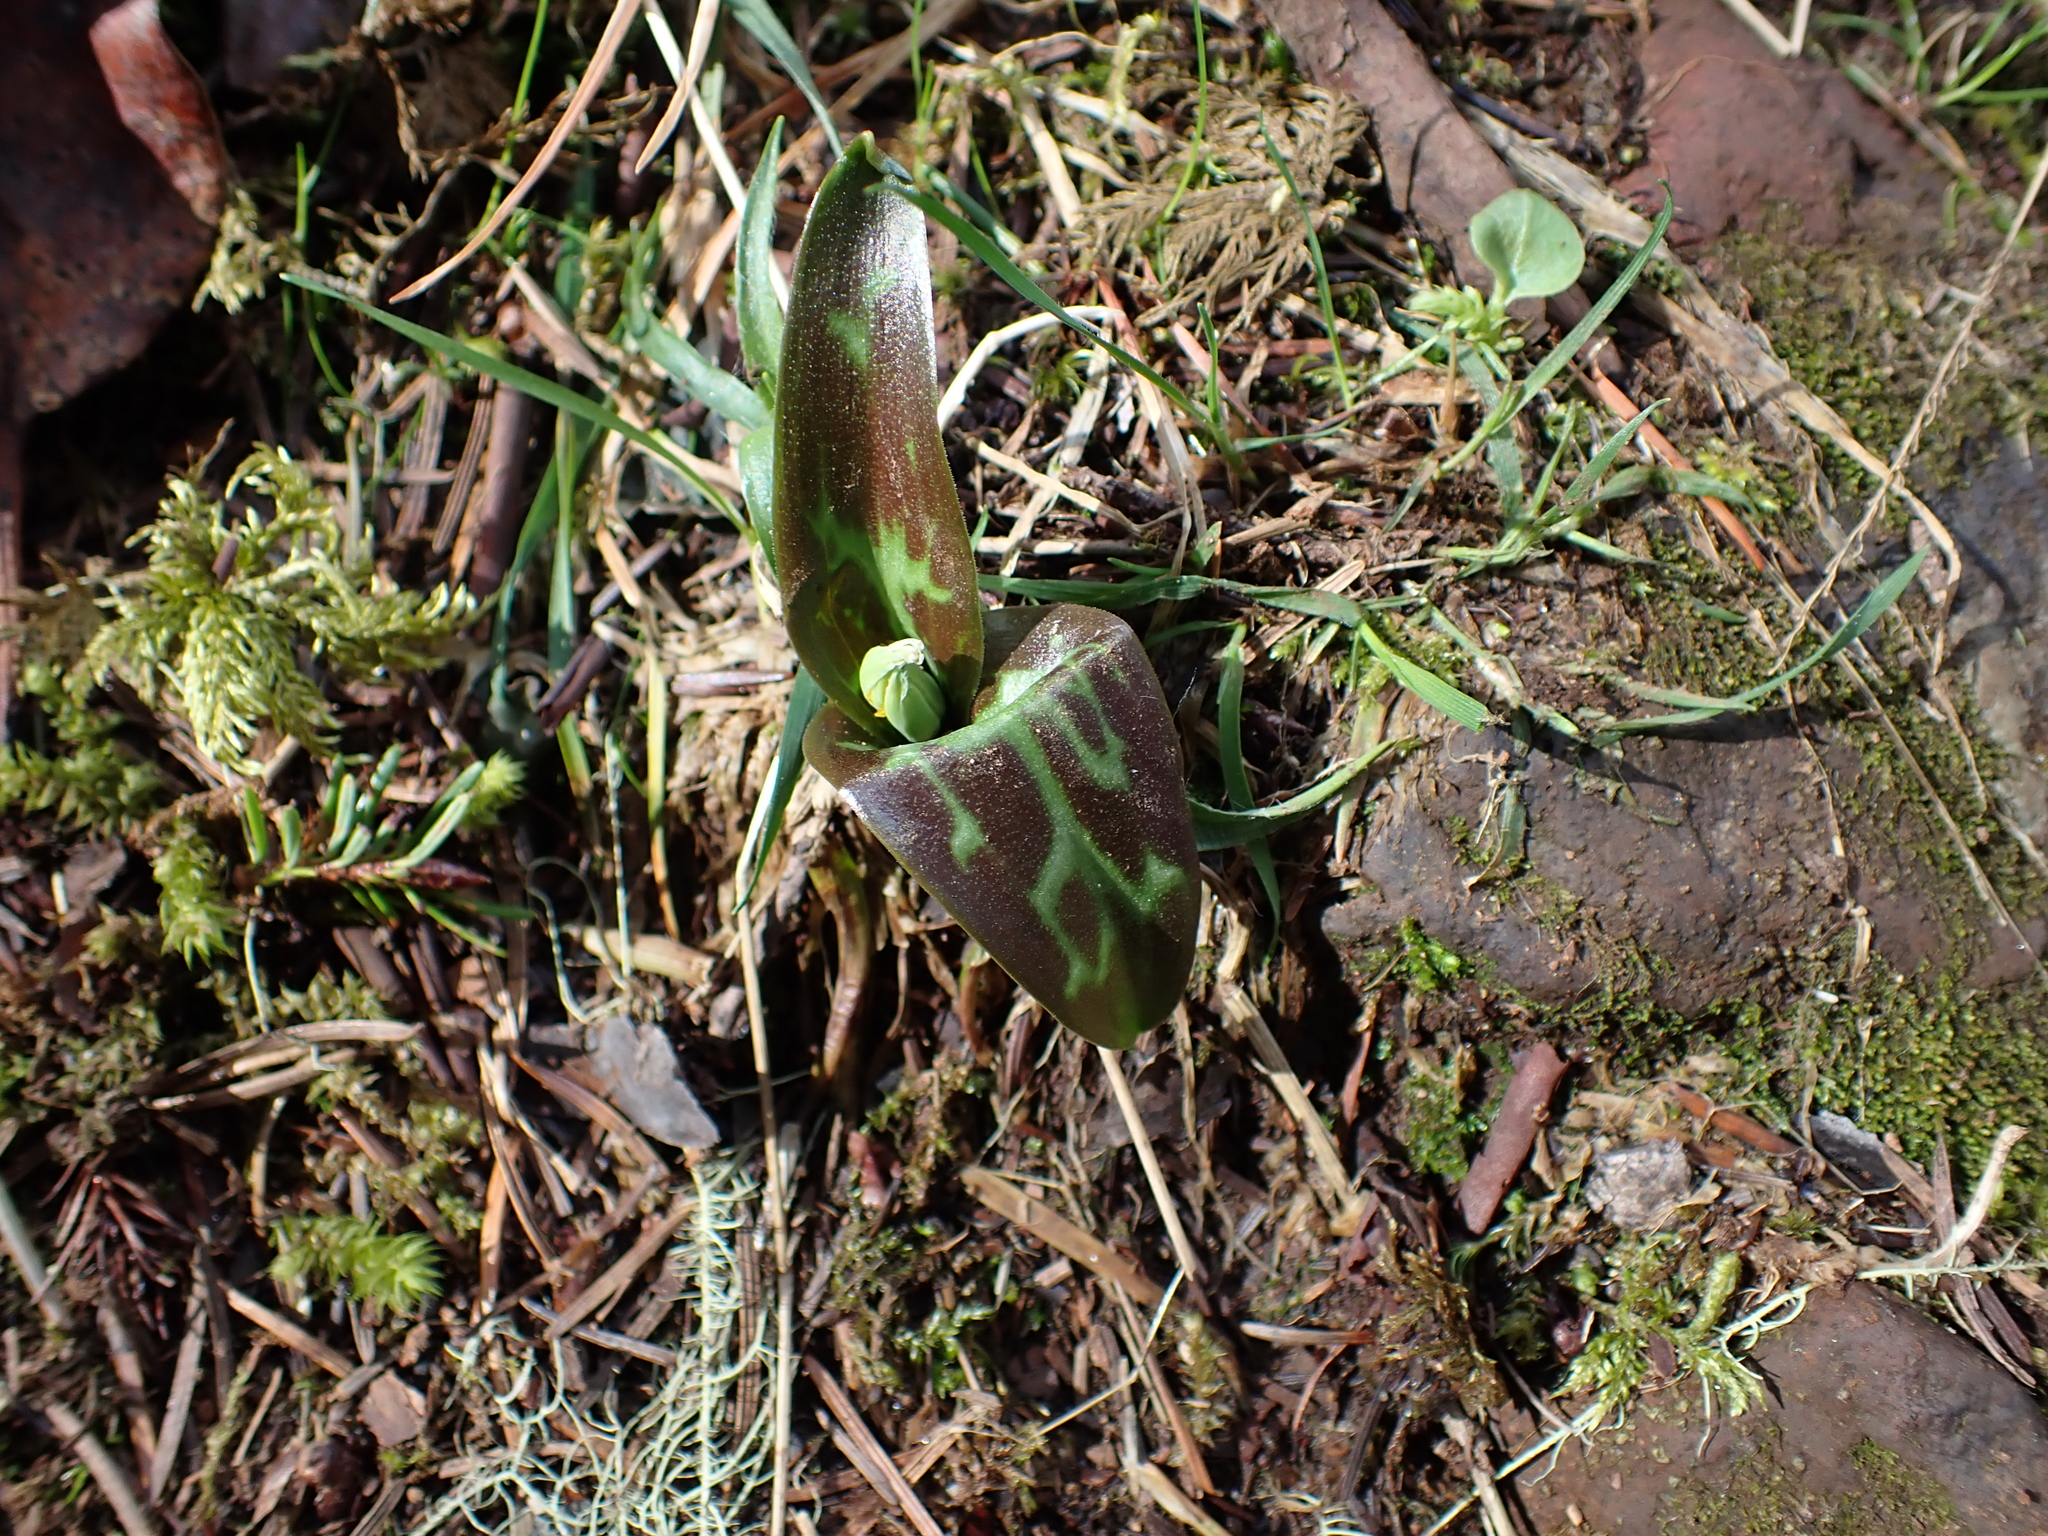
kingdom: Plantae
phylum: Tracheophyta
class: Liliopsida
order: Liliales
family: Liliaceae
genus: Erythronium
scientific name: Erythronium oregonum
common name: Giant adder's-tongue
